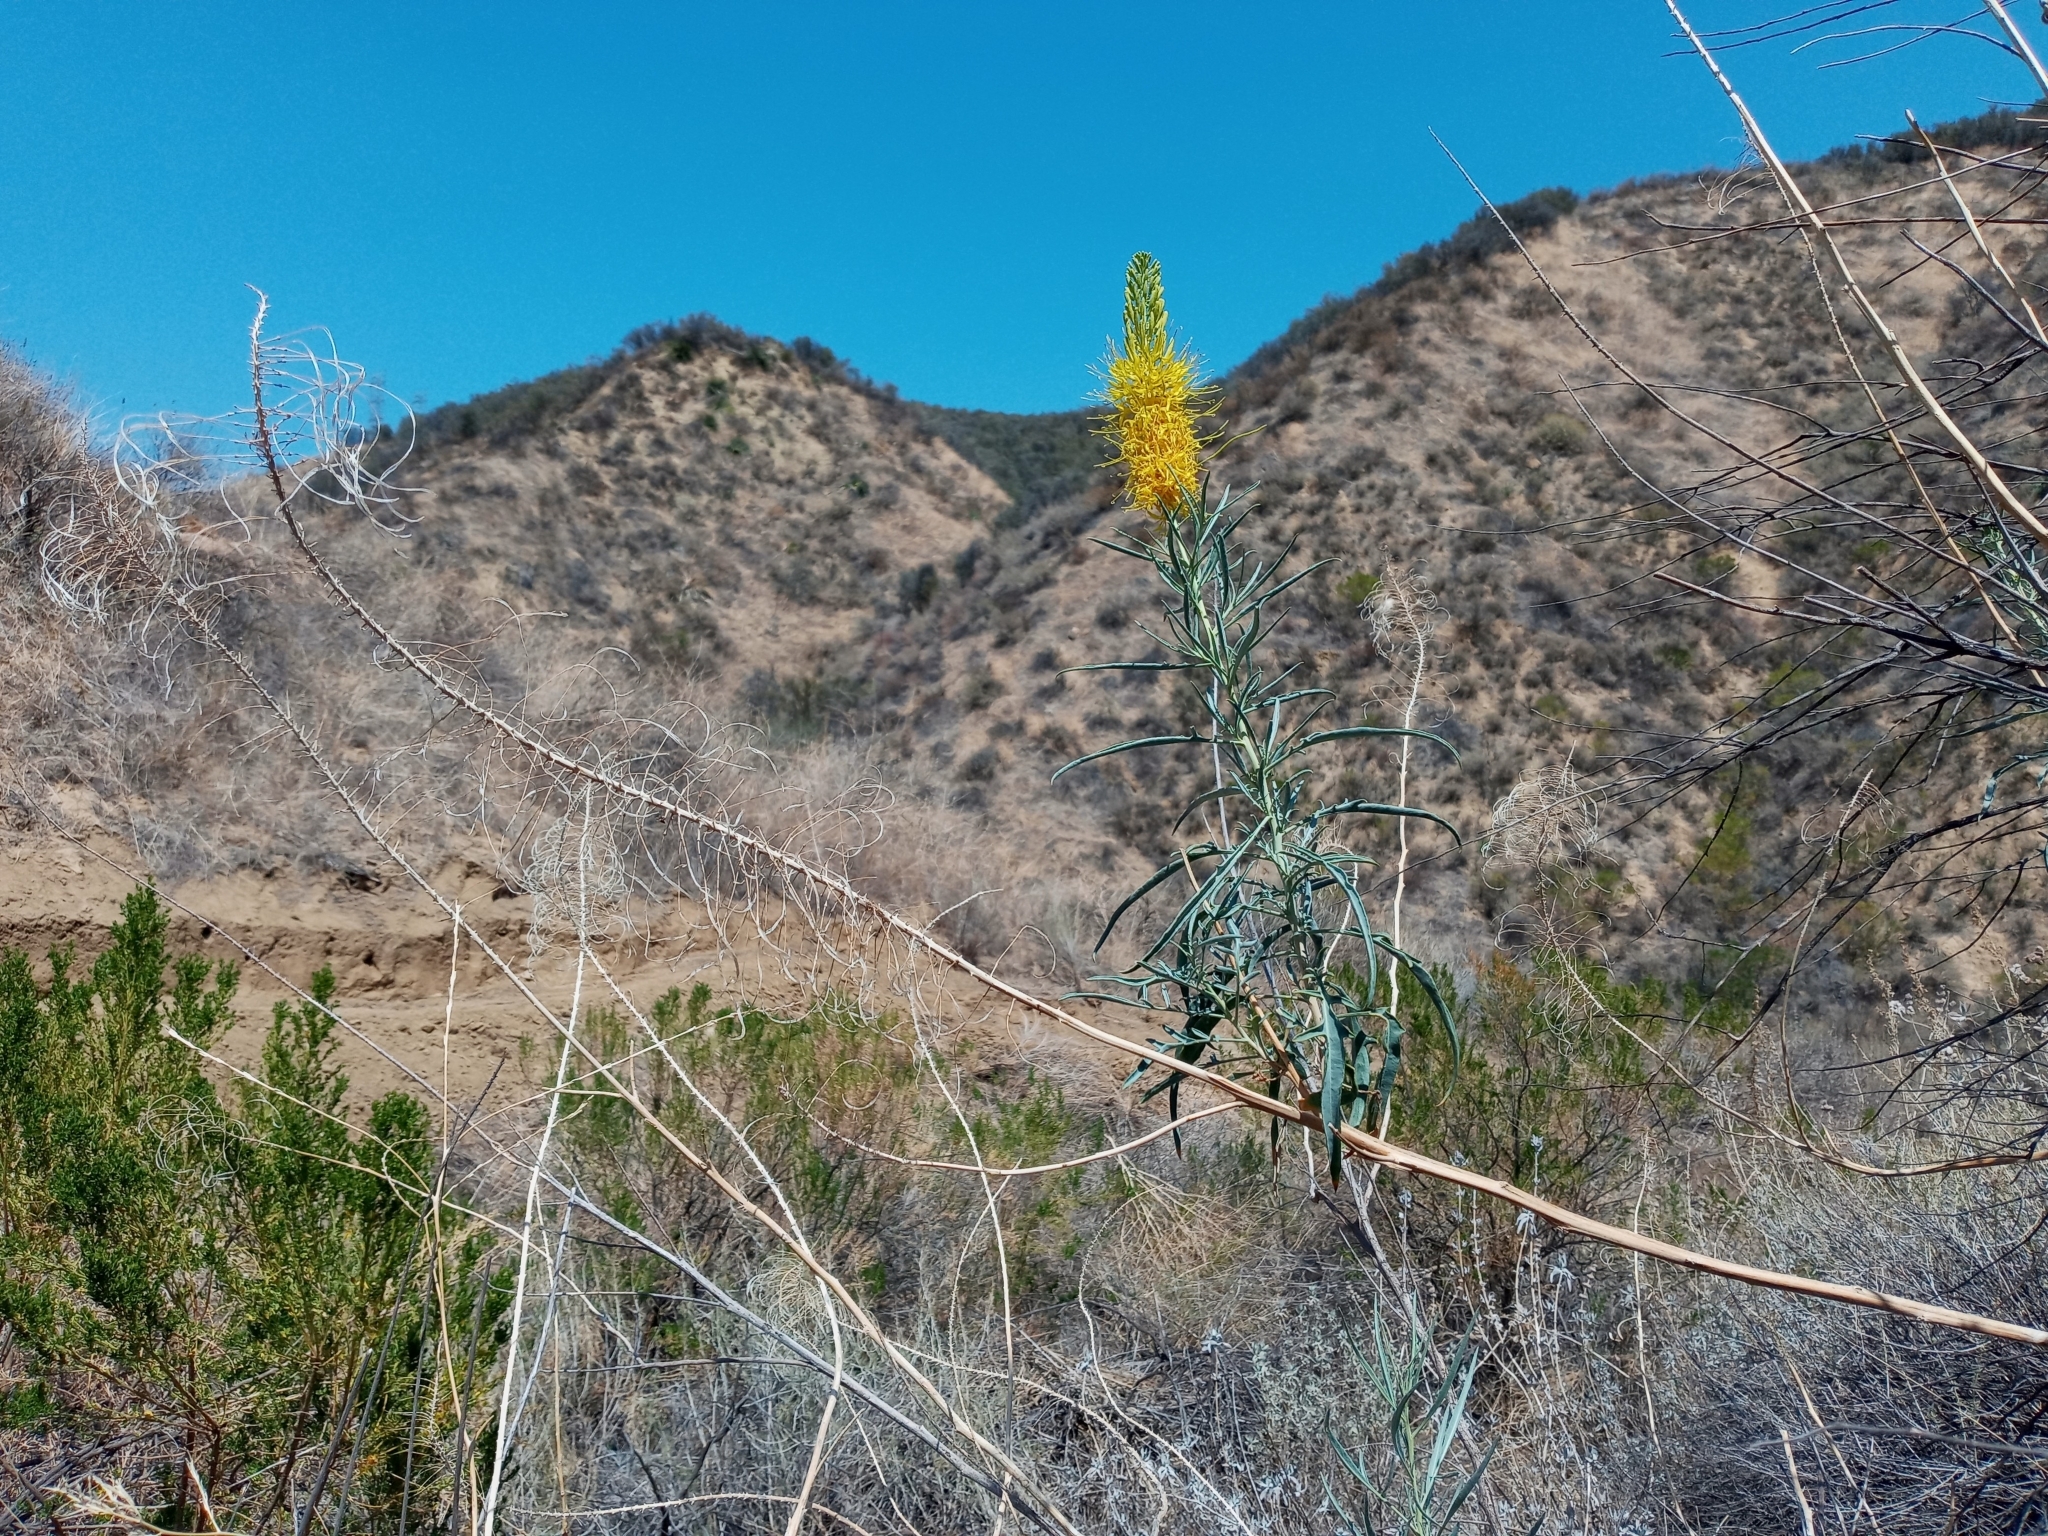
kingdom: Plantae
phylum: Tracheophyta
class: Magnoliopsida
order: Brassicales
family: Brassicaceae
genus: Stanleya
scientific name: Stanleya pinnata
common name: Prince's-plume
